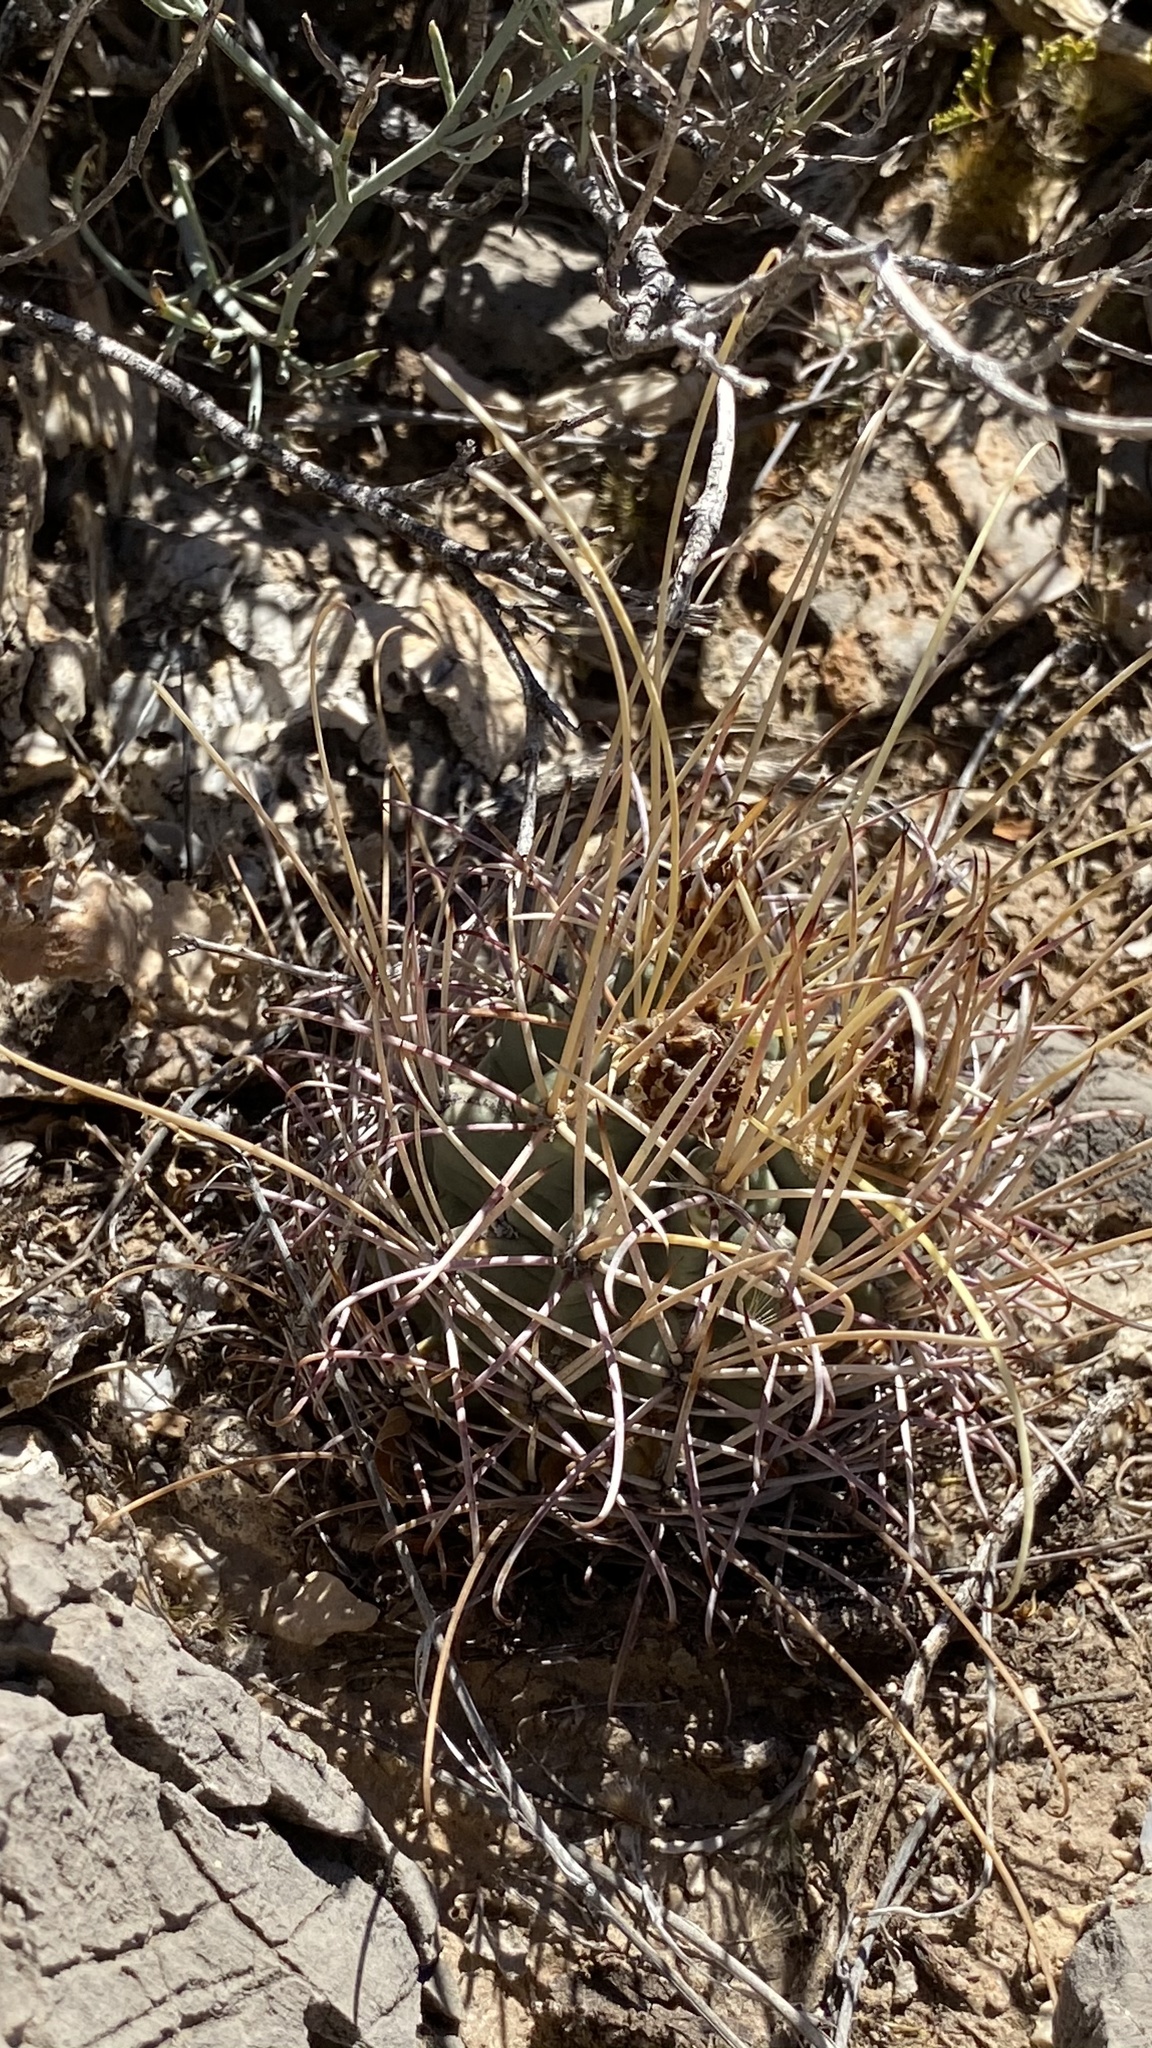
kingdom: Plantae
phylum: Tracheophyta
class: Magnoliopsida
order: Caryophyllales
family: Cactaceae
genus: Ferocactus
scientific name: Ferocactus uncinatus
